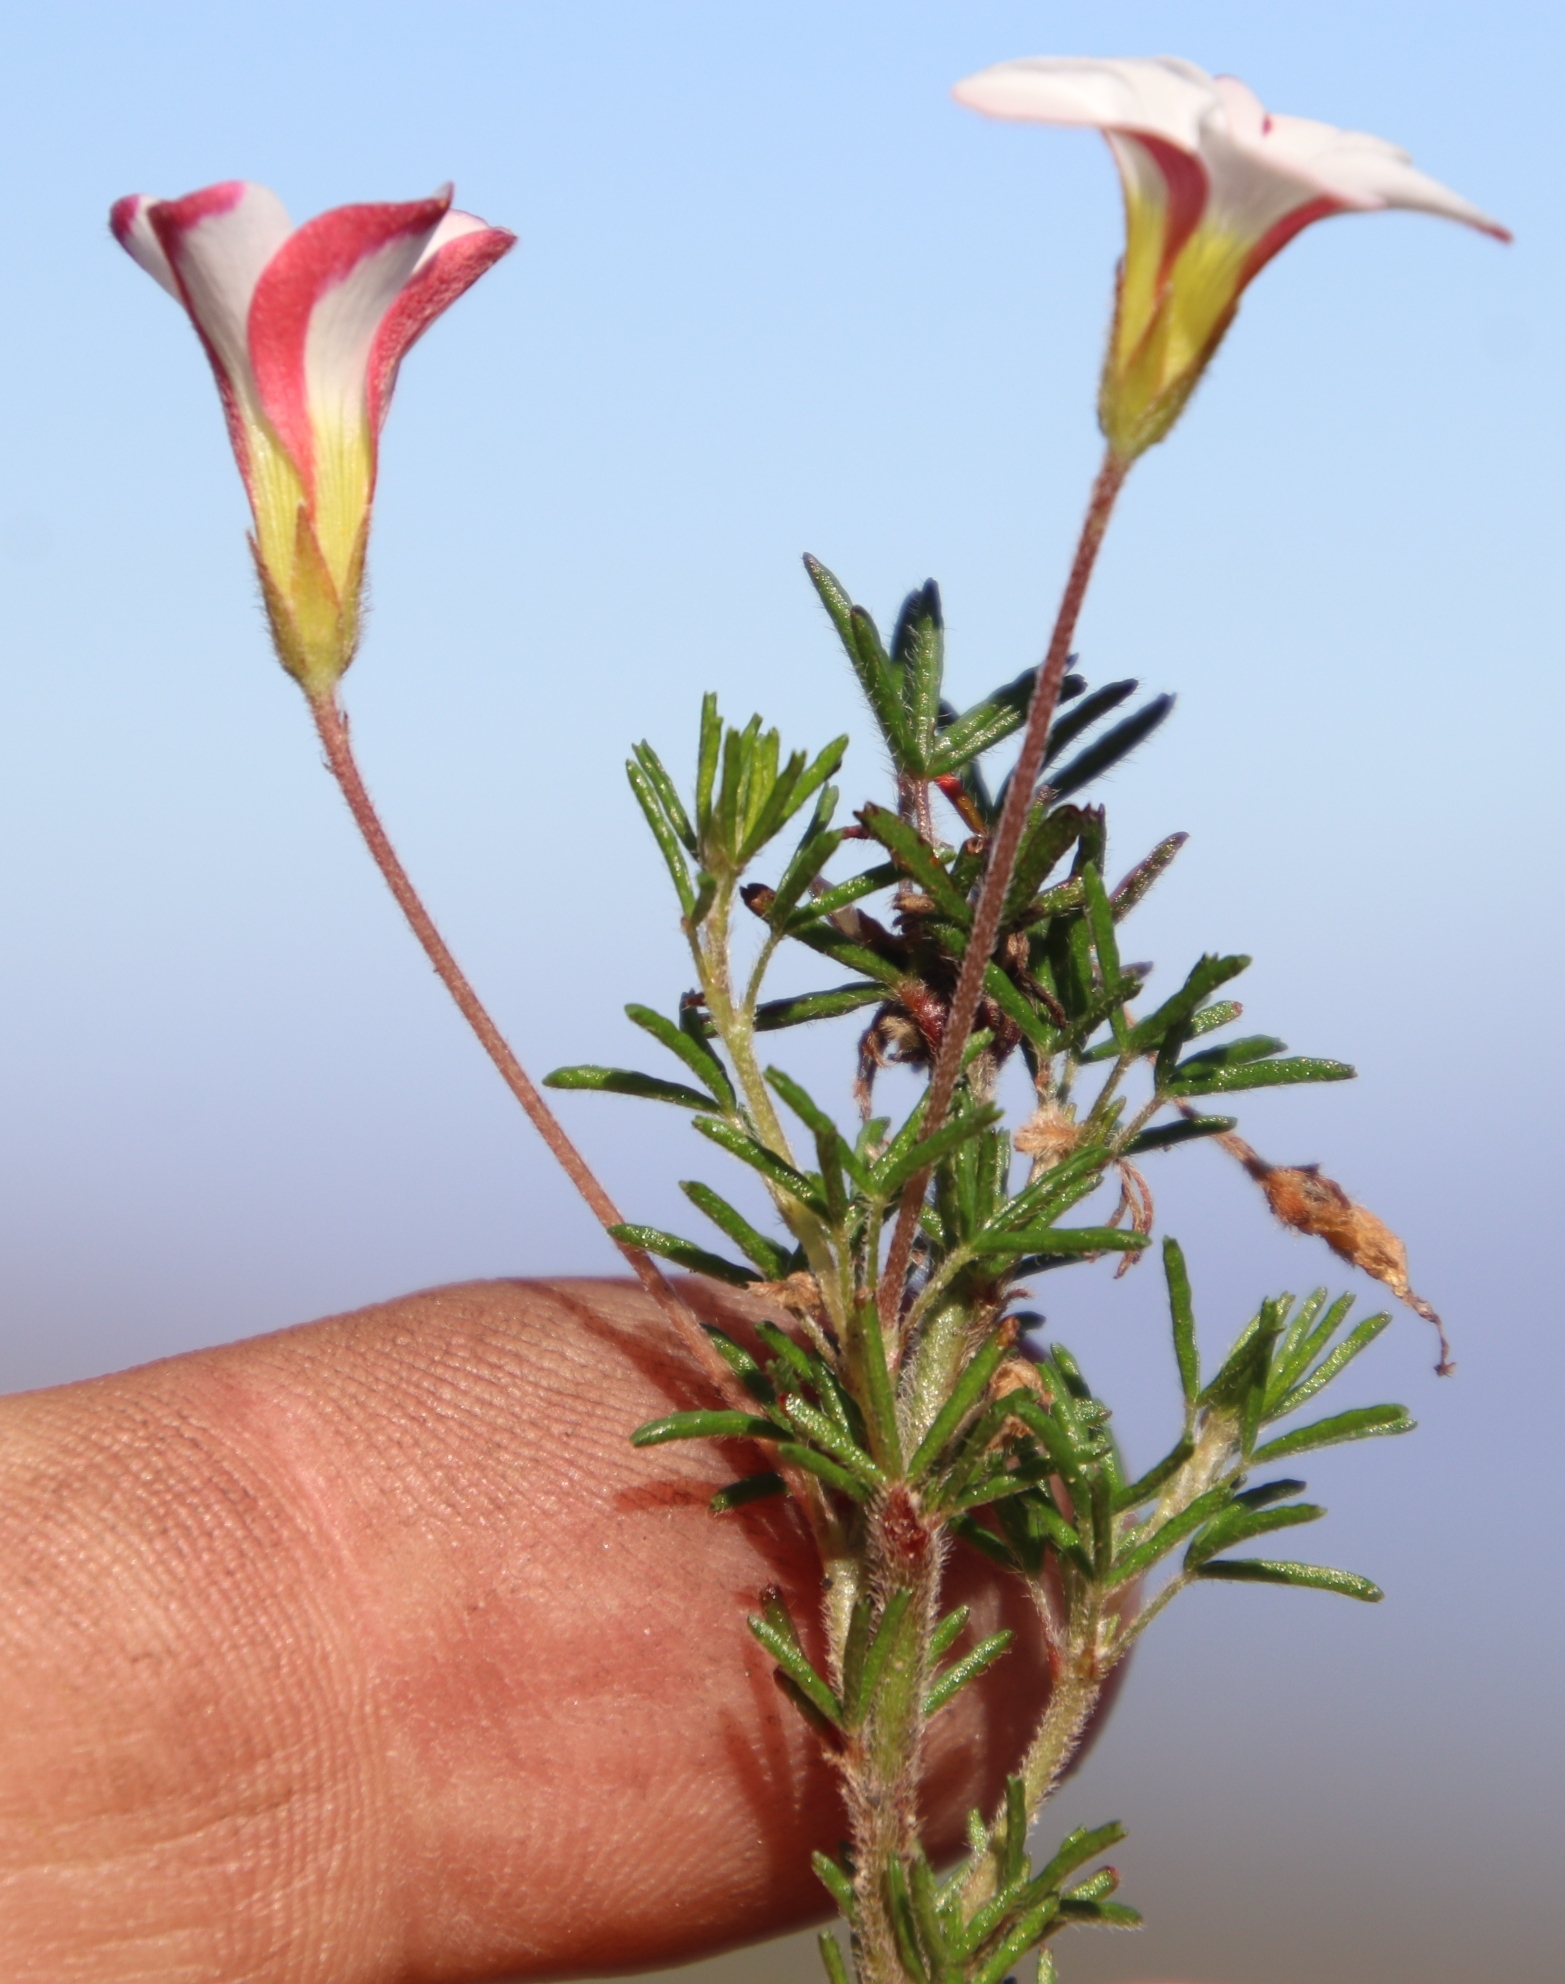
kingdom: Plantae
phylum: Tracheophyta
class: Magnoliopsida
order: Oxalidales
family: Oxalidaceae
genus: Oxalis
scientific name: Oxalis tenuifolia
